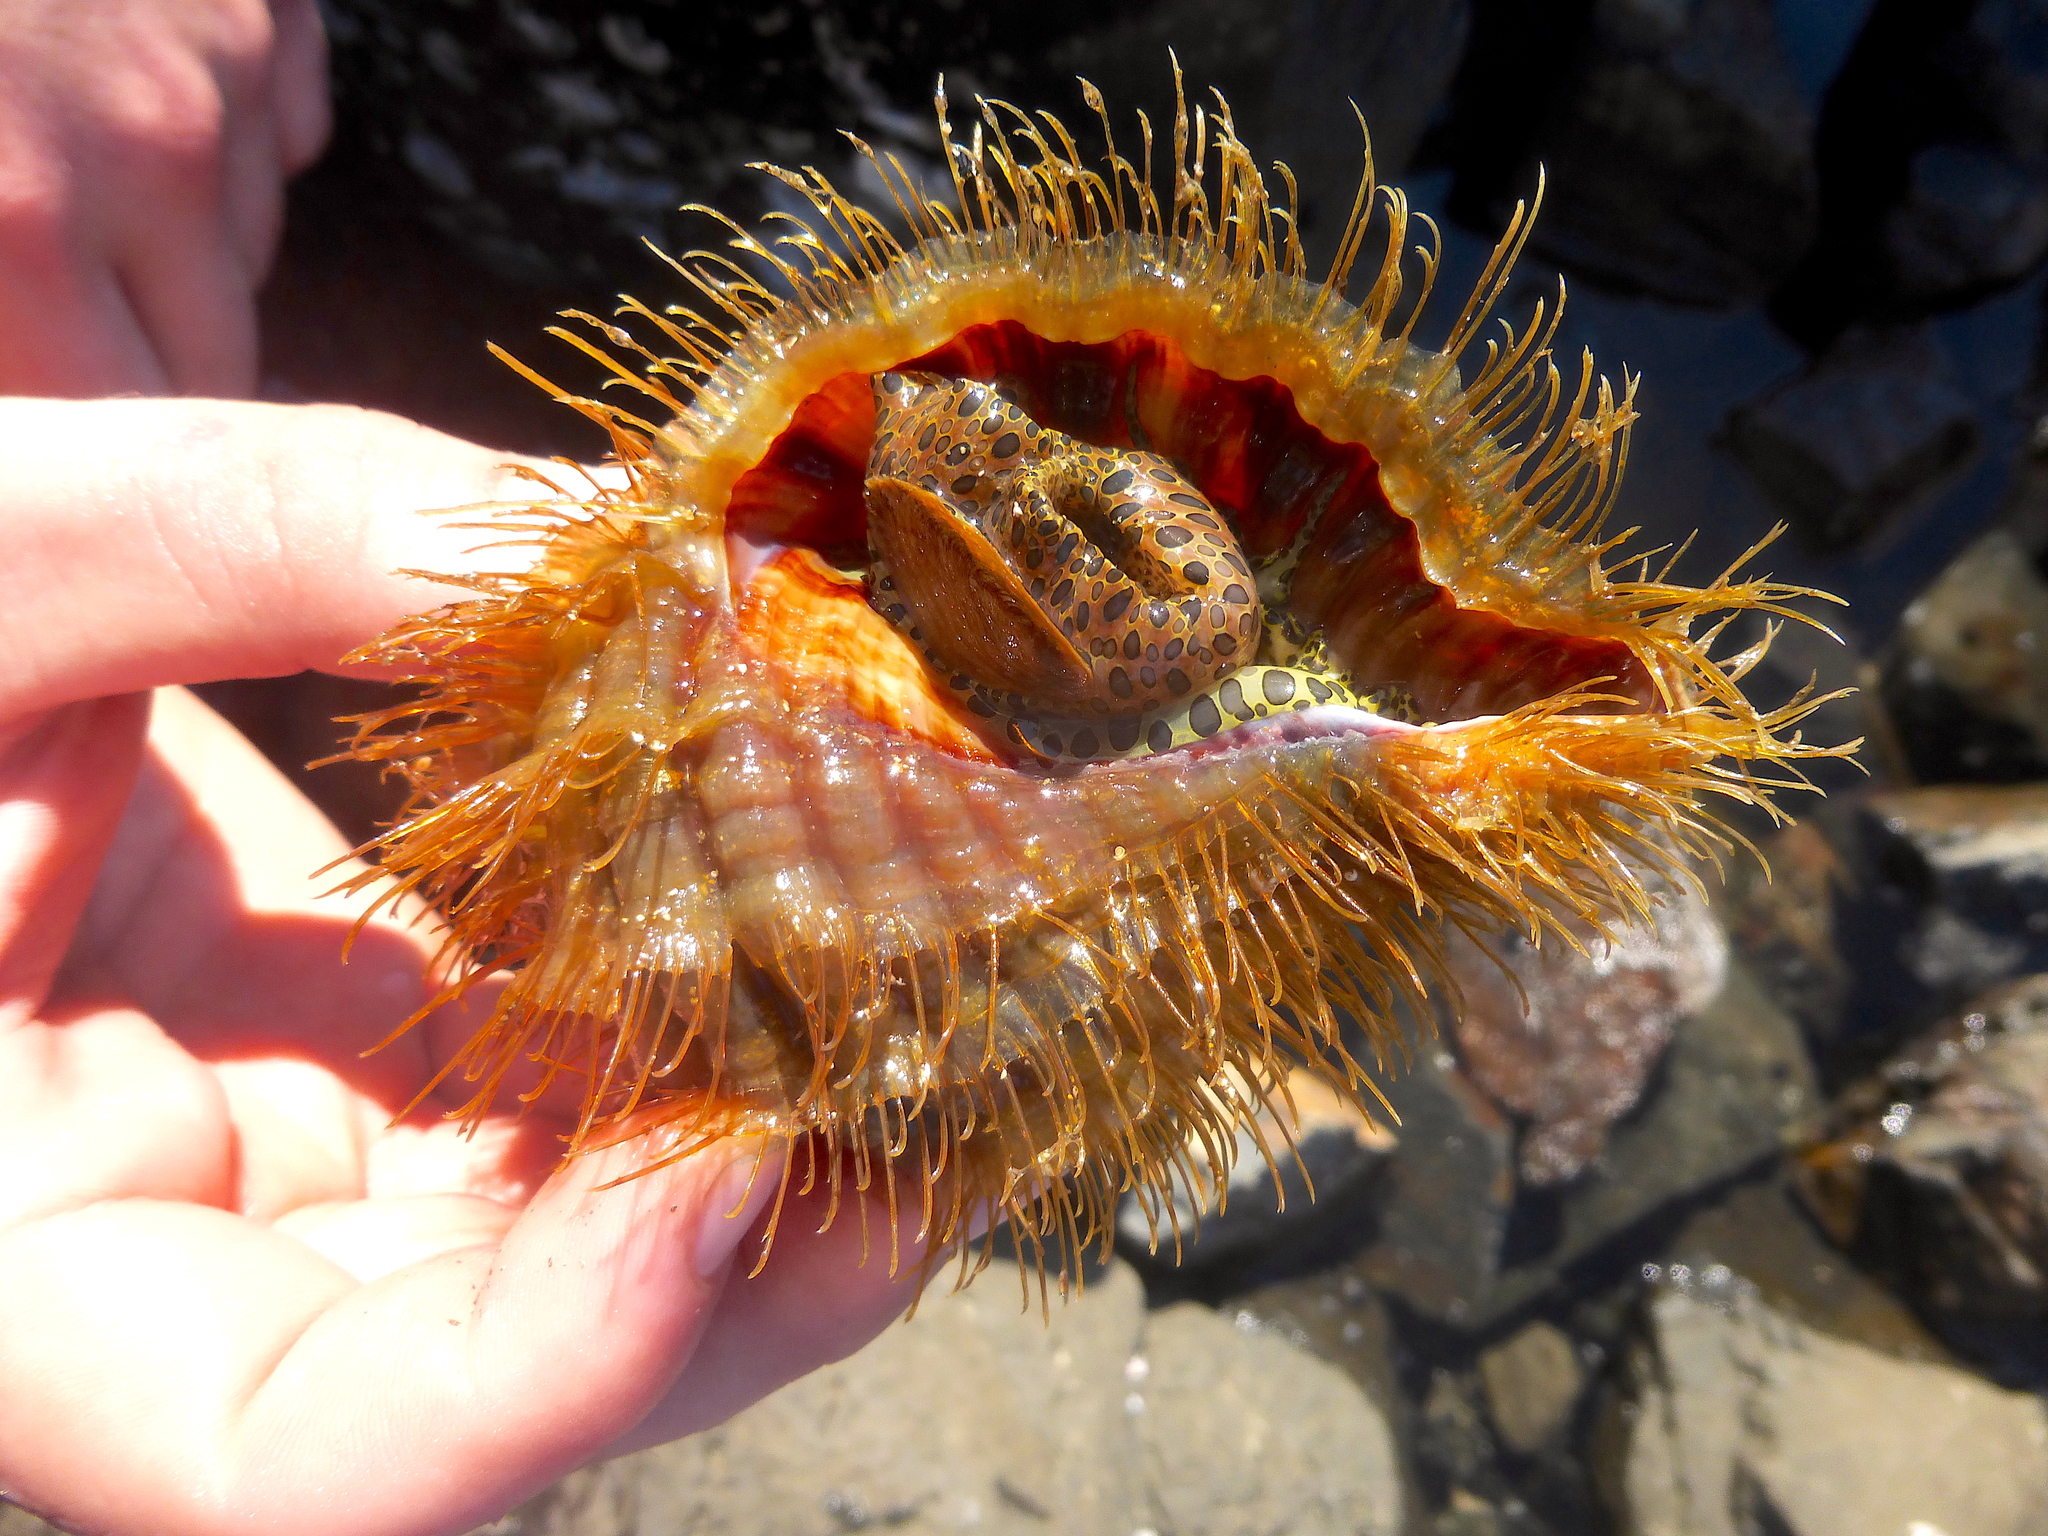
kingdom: Animalia
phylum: Mollusca
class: Gastropoda
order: Littorinimorpha
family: Cymatiidae
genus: Monoplex
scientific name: Monoplex parthenopeus
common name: Giant triton
